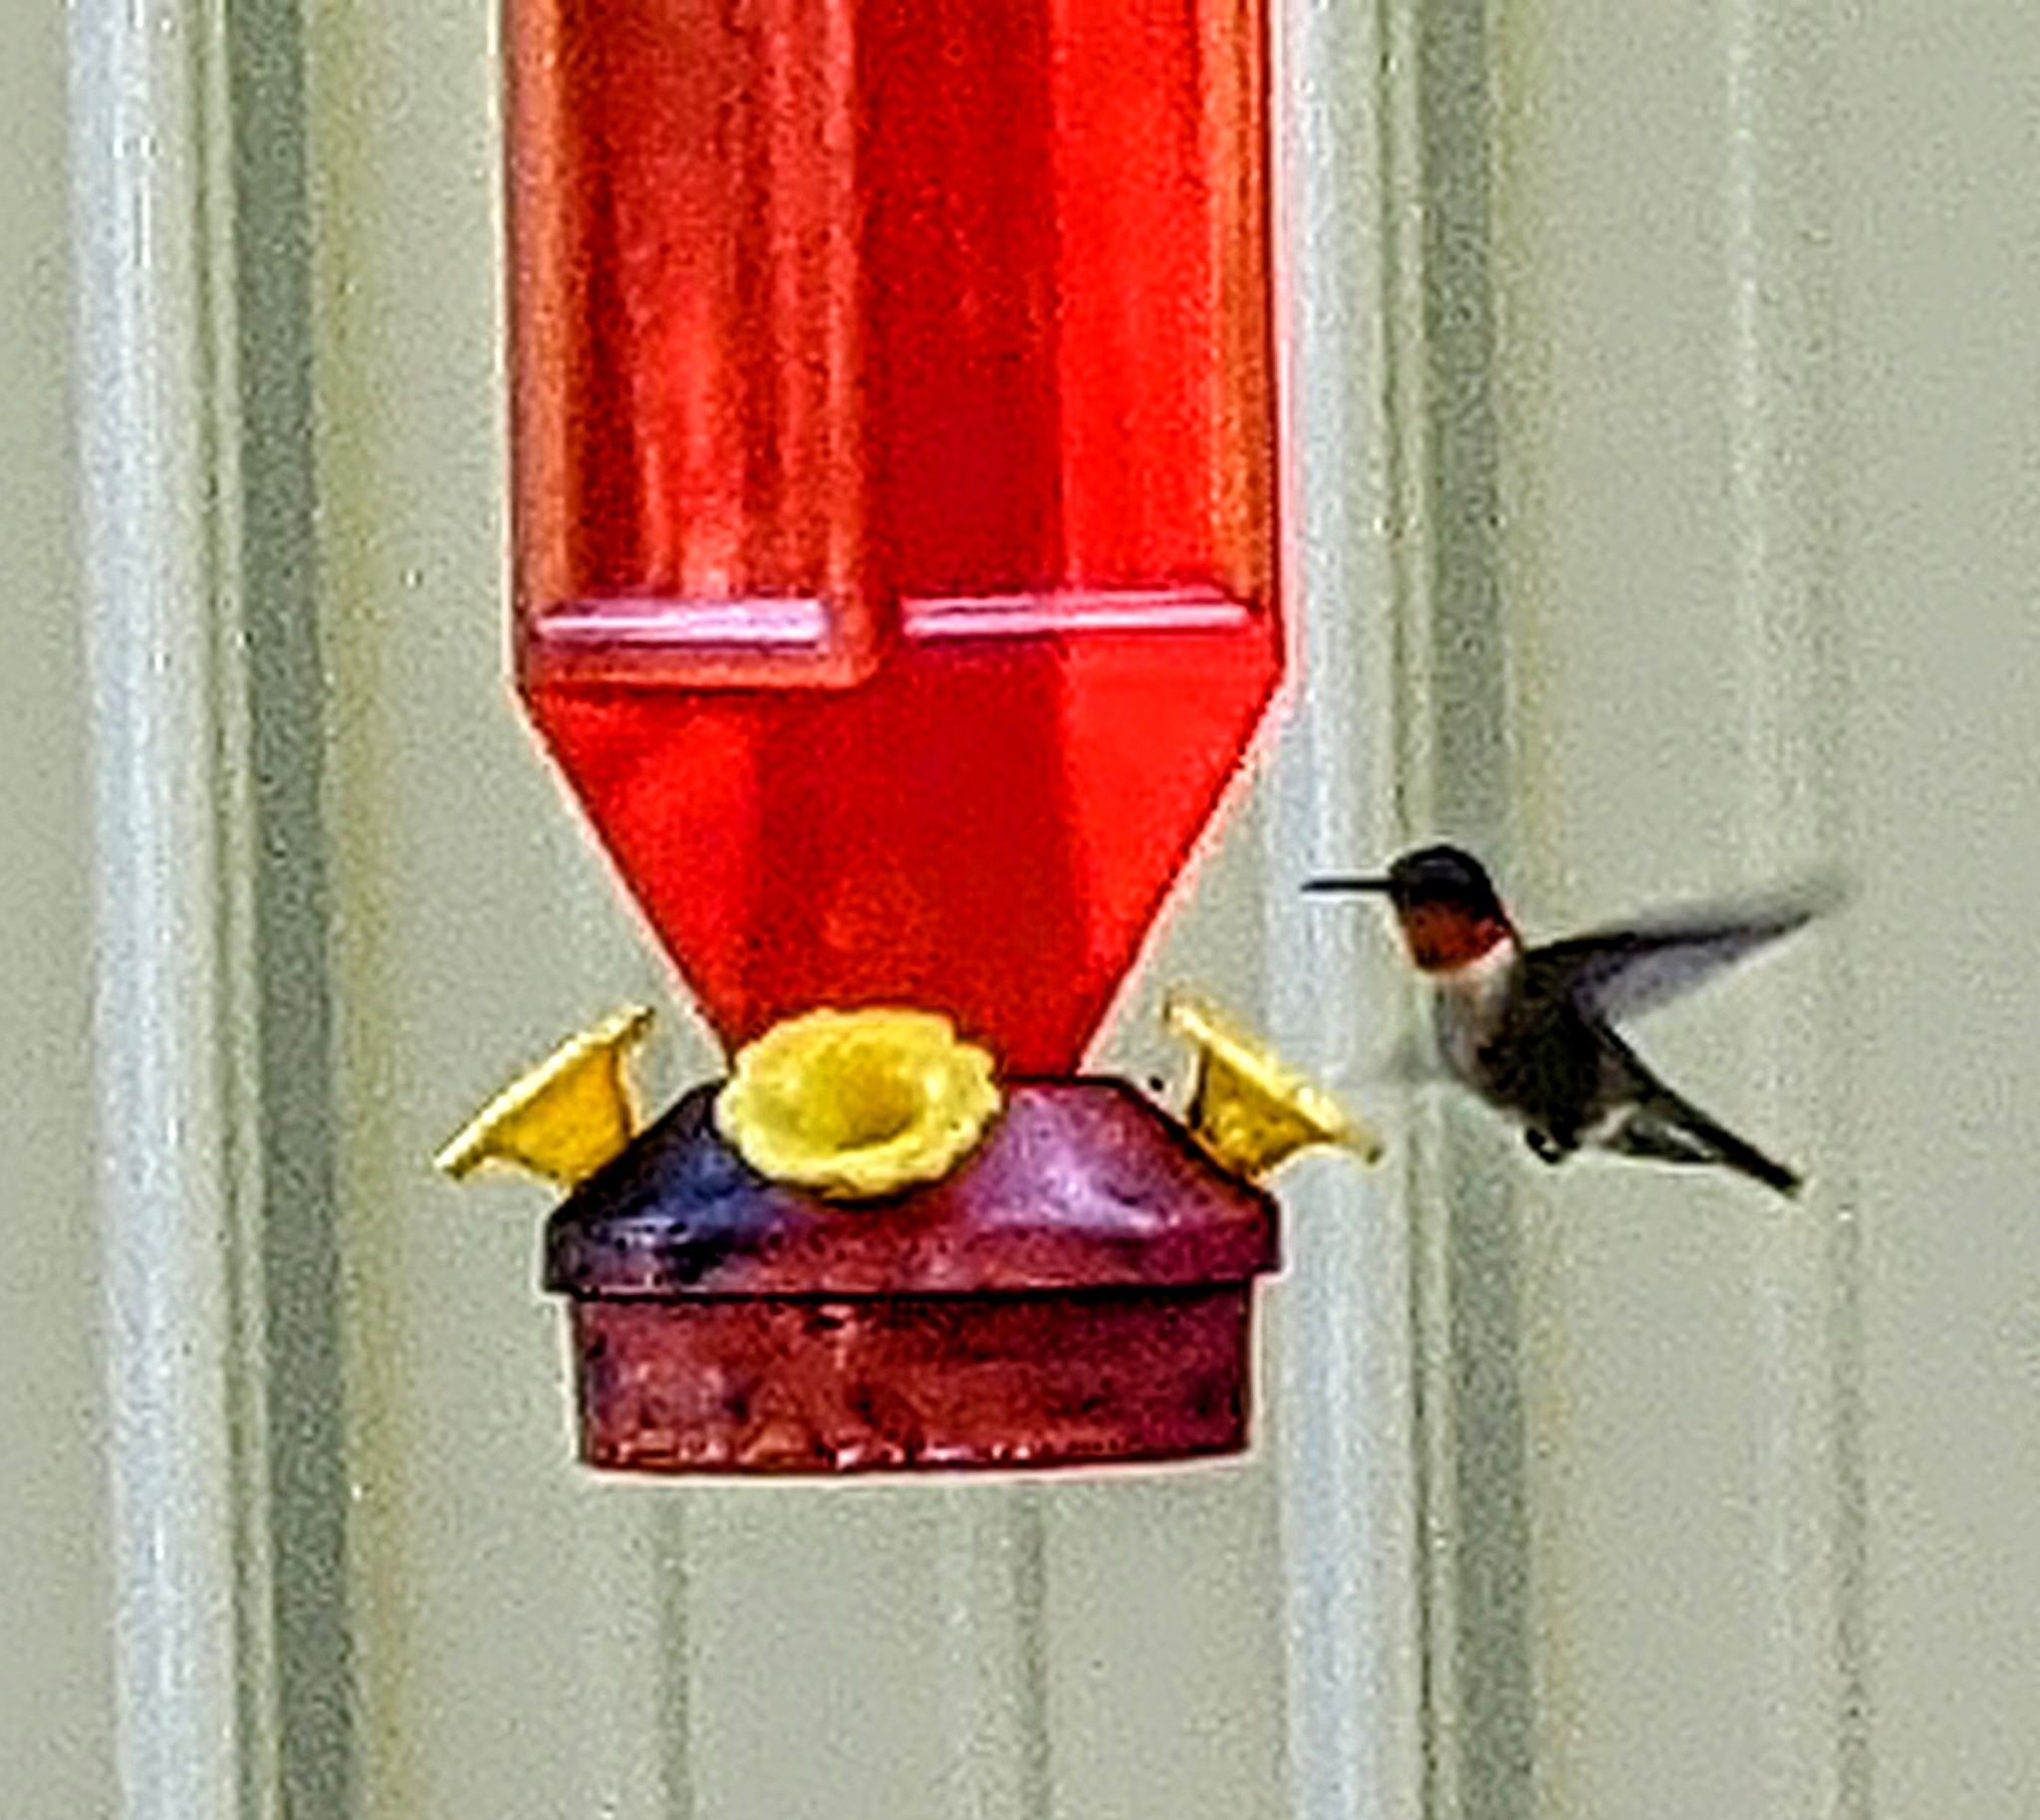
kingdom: Animalia
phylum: Chordata
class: Aves
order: Apodiformes
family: Trochilidae
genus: Archilochus
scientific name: Archilochus colubris
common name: Ruby-throated hummingbird
